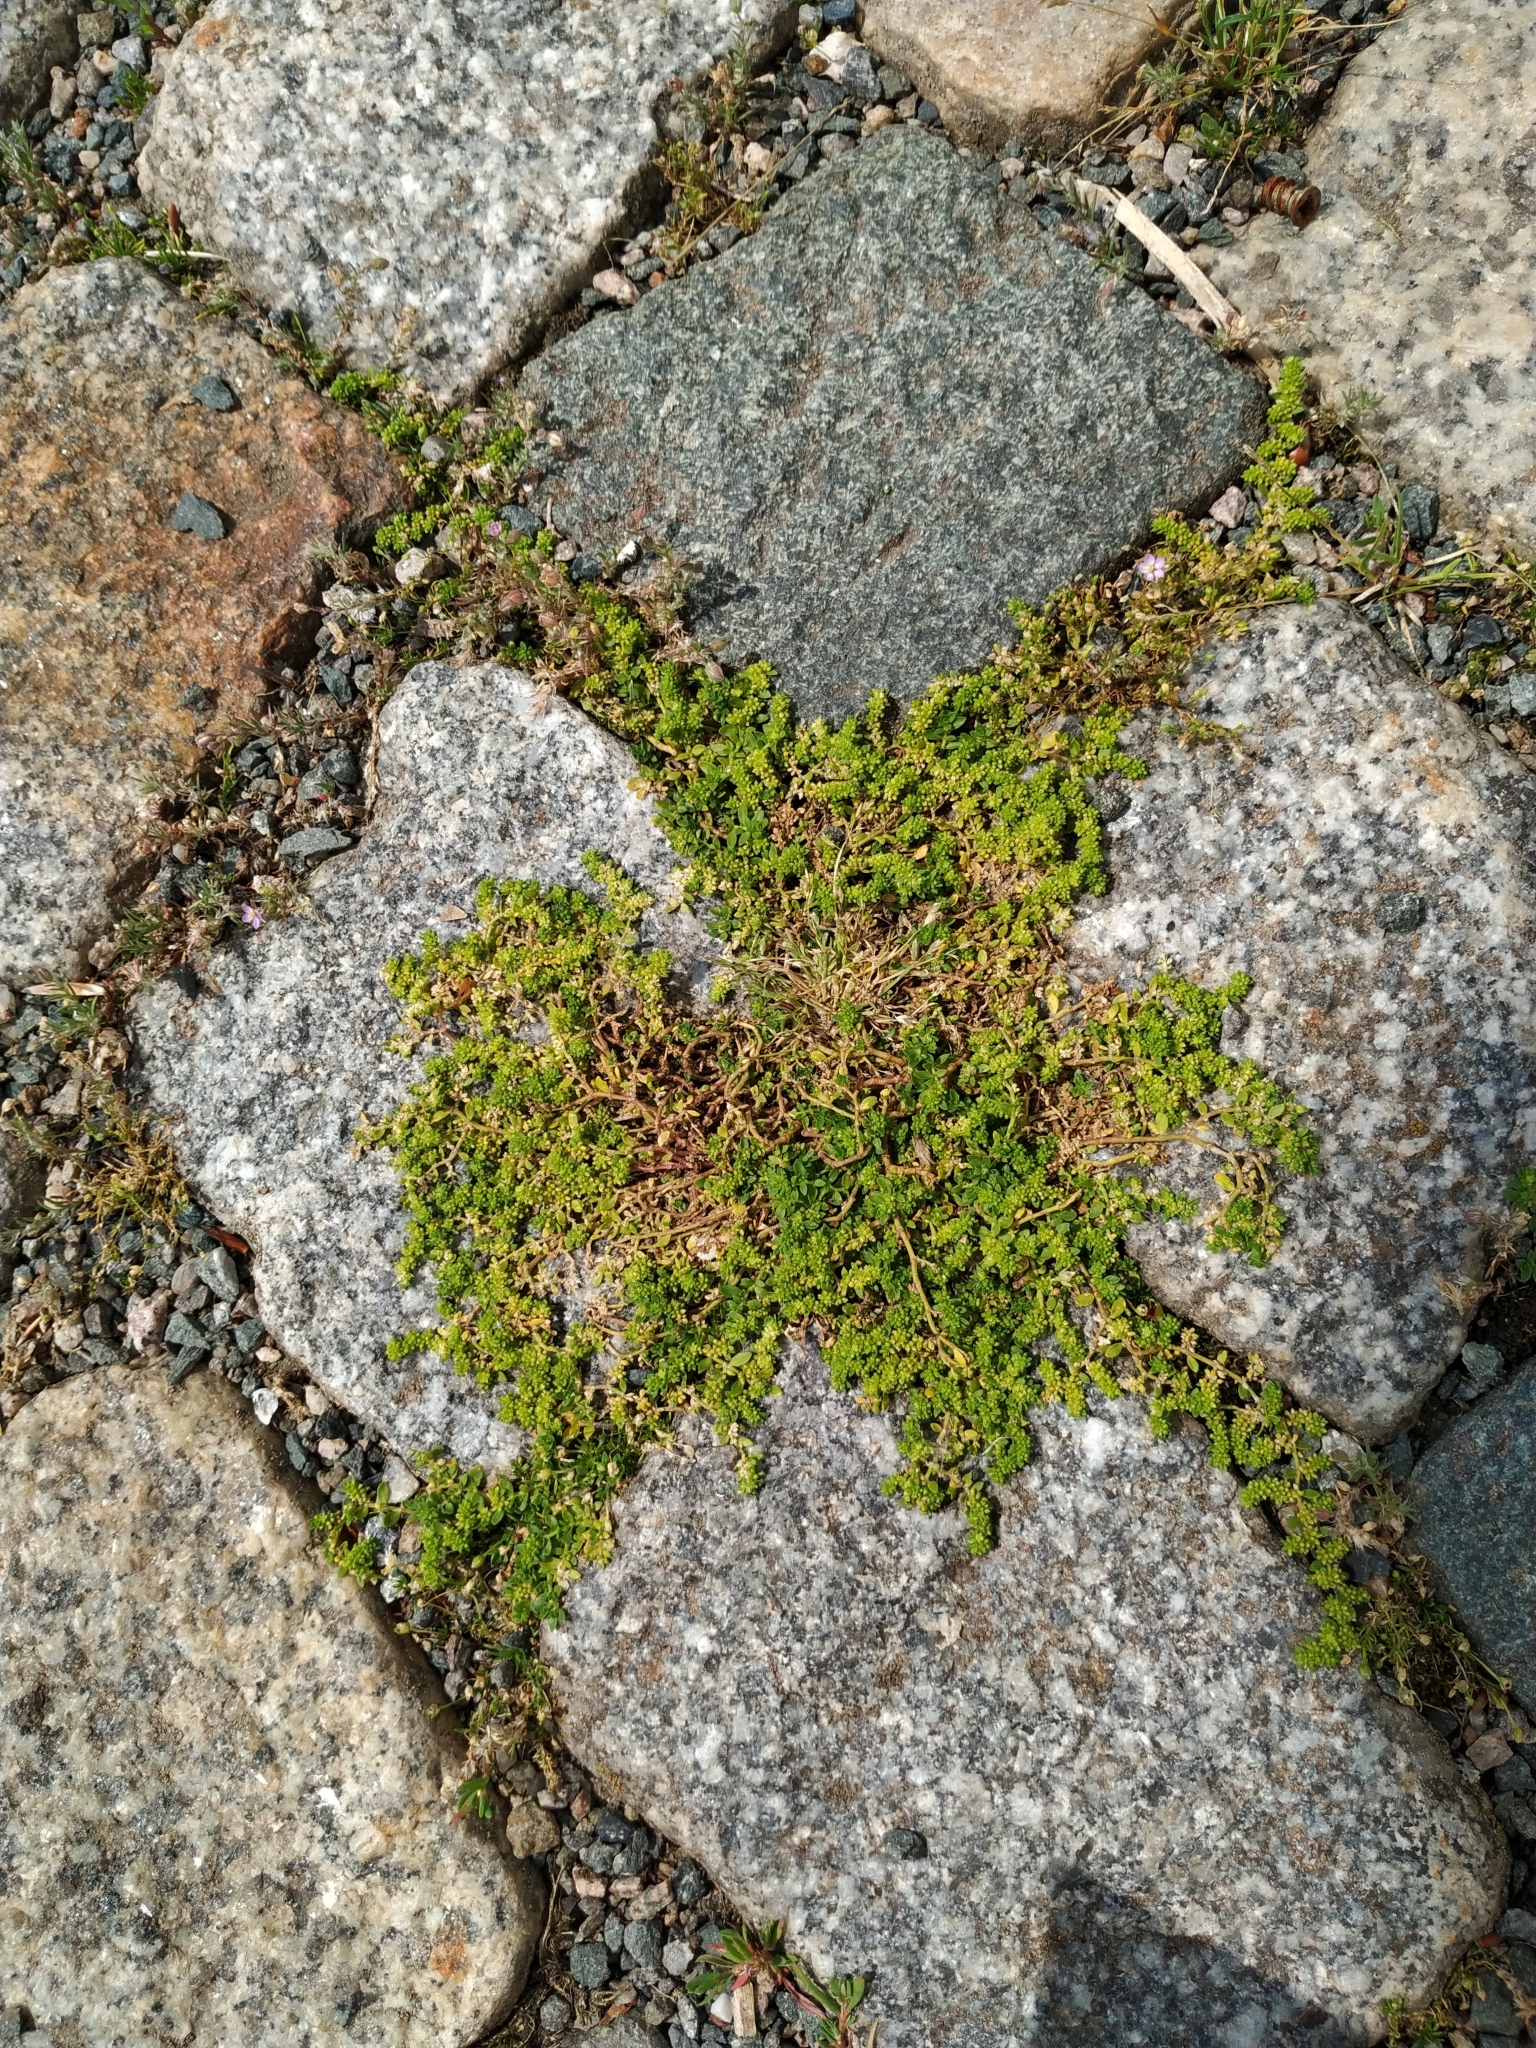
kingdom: Plantae
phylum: Tracheophyta
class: Magnoliopsida
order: Caryophyllales
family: Caryophyllaceae
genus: Herniaria
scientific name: Herniaria glabra
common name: Smooth rupturewort
